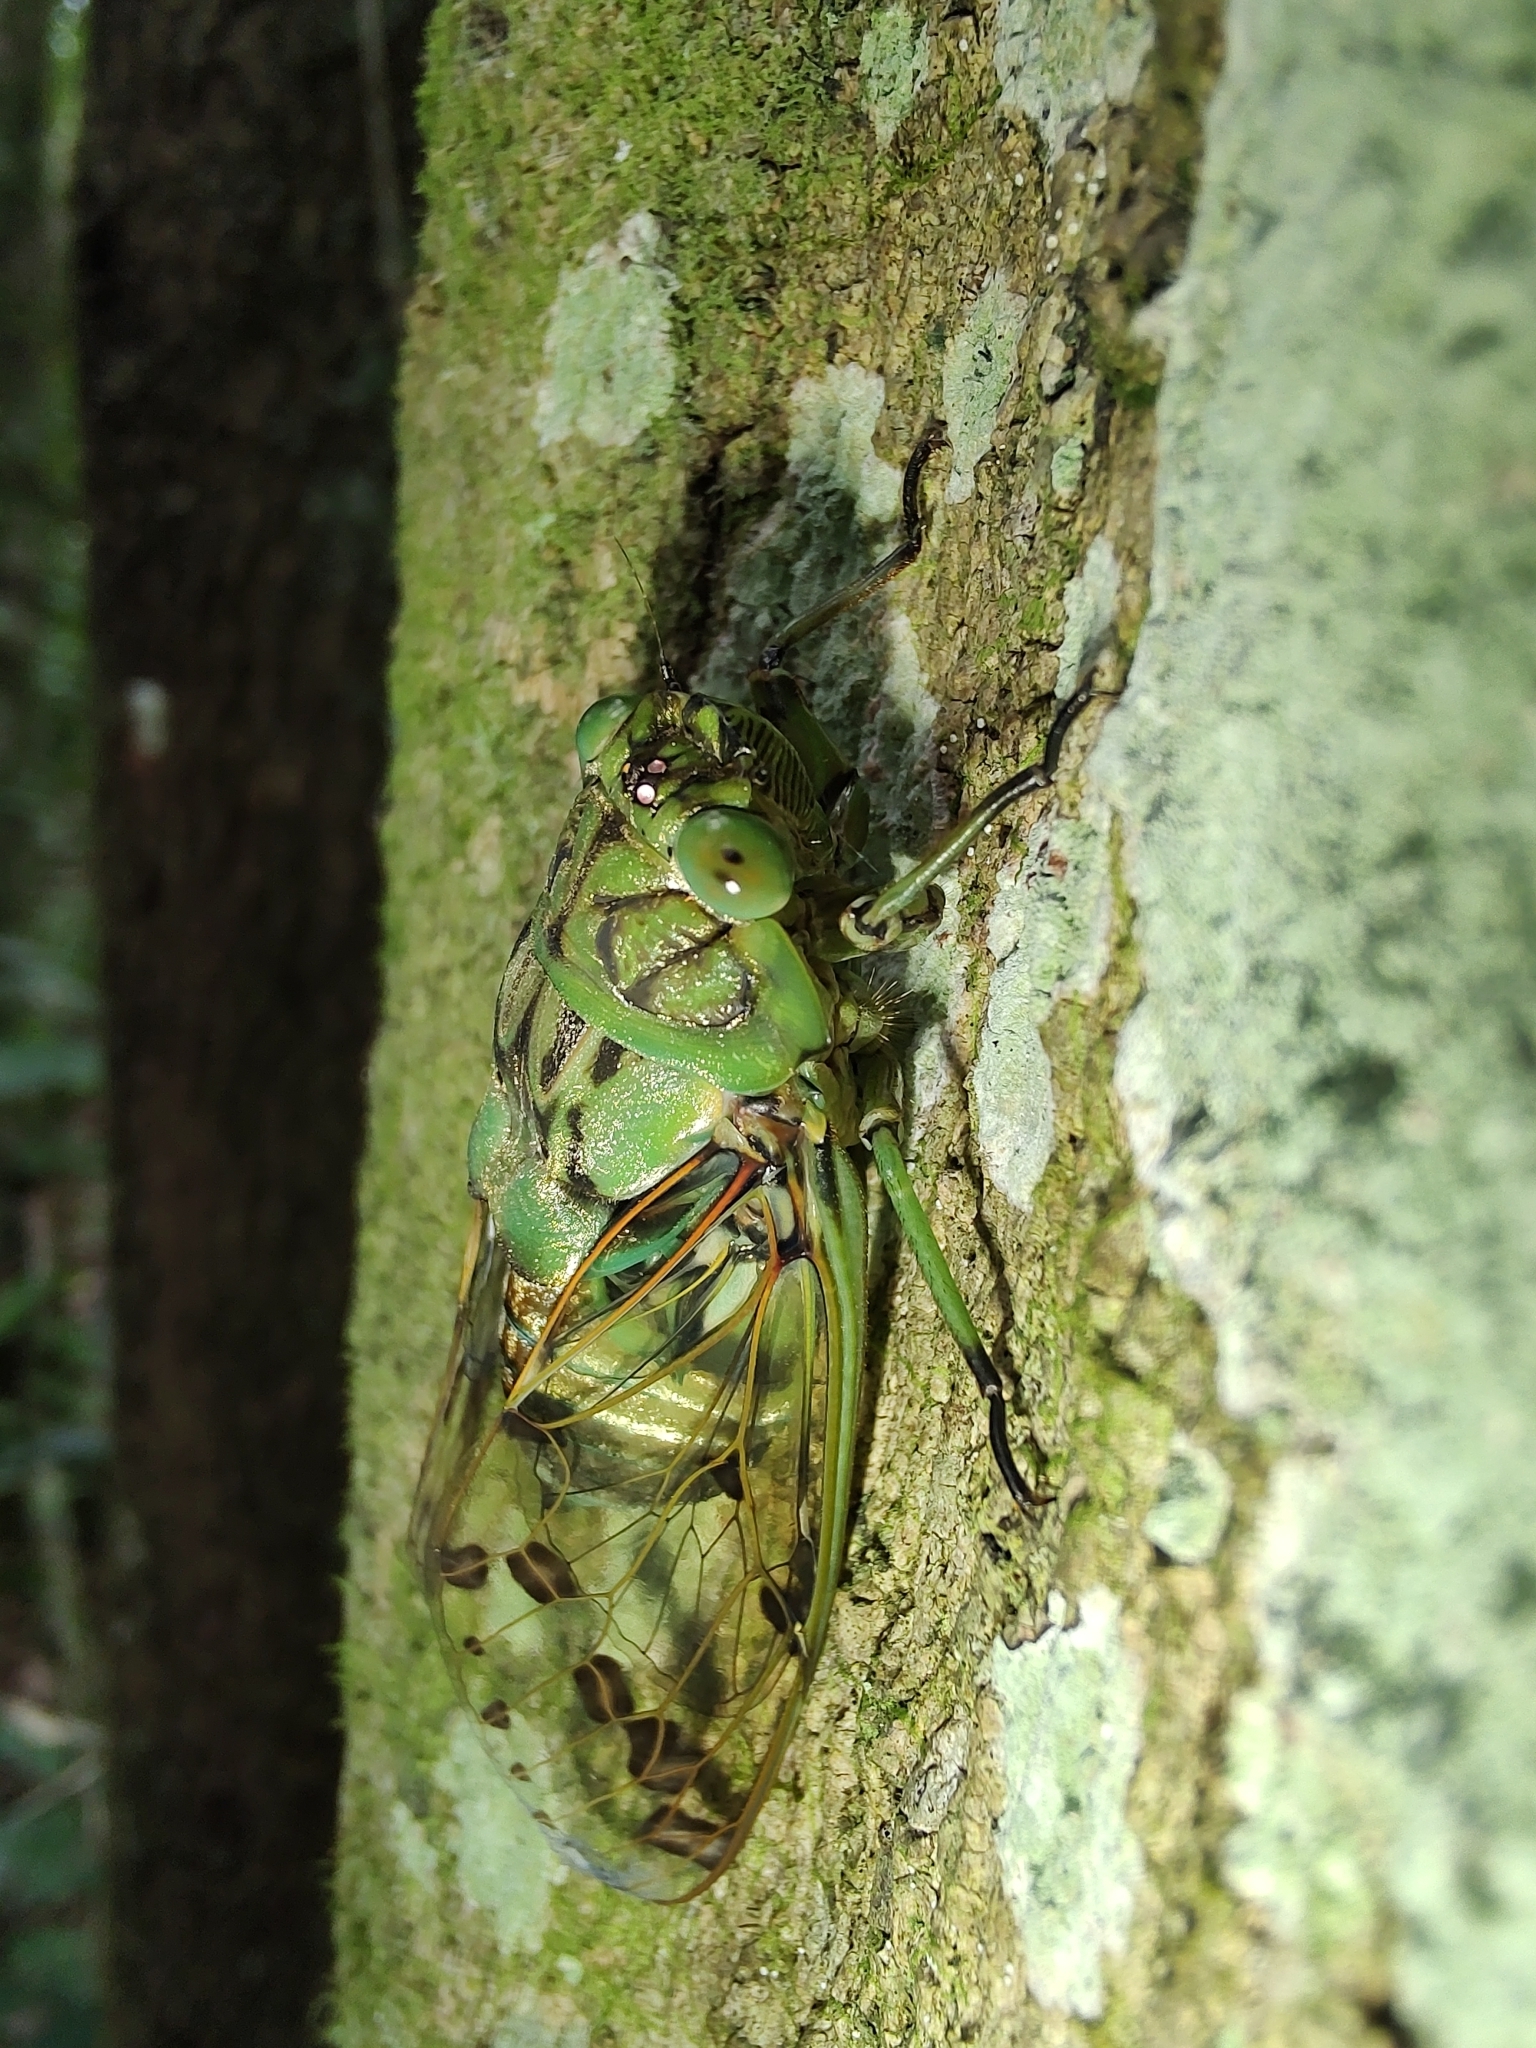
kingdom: Animalia
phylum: Arthropoda
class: Insecta
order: Hemiptera
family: Cicadidae
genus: Zammara
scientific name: Zammara tympanum
